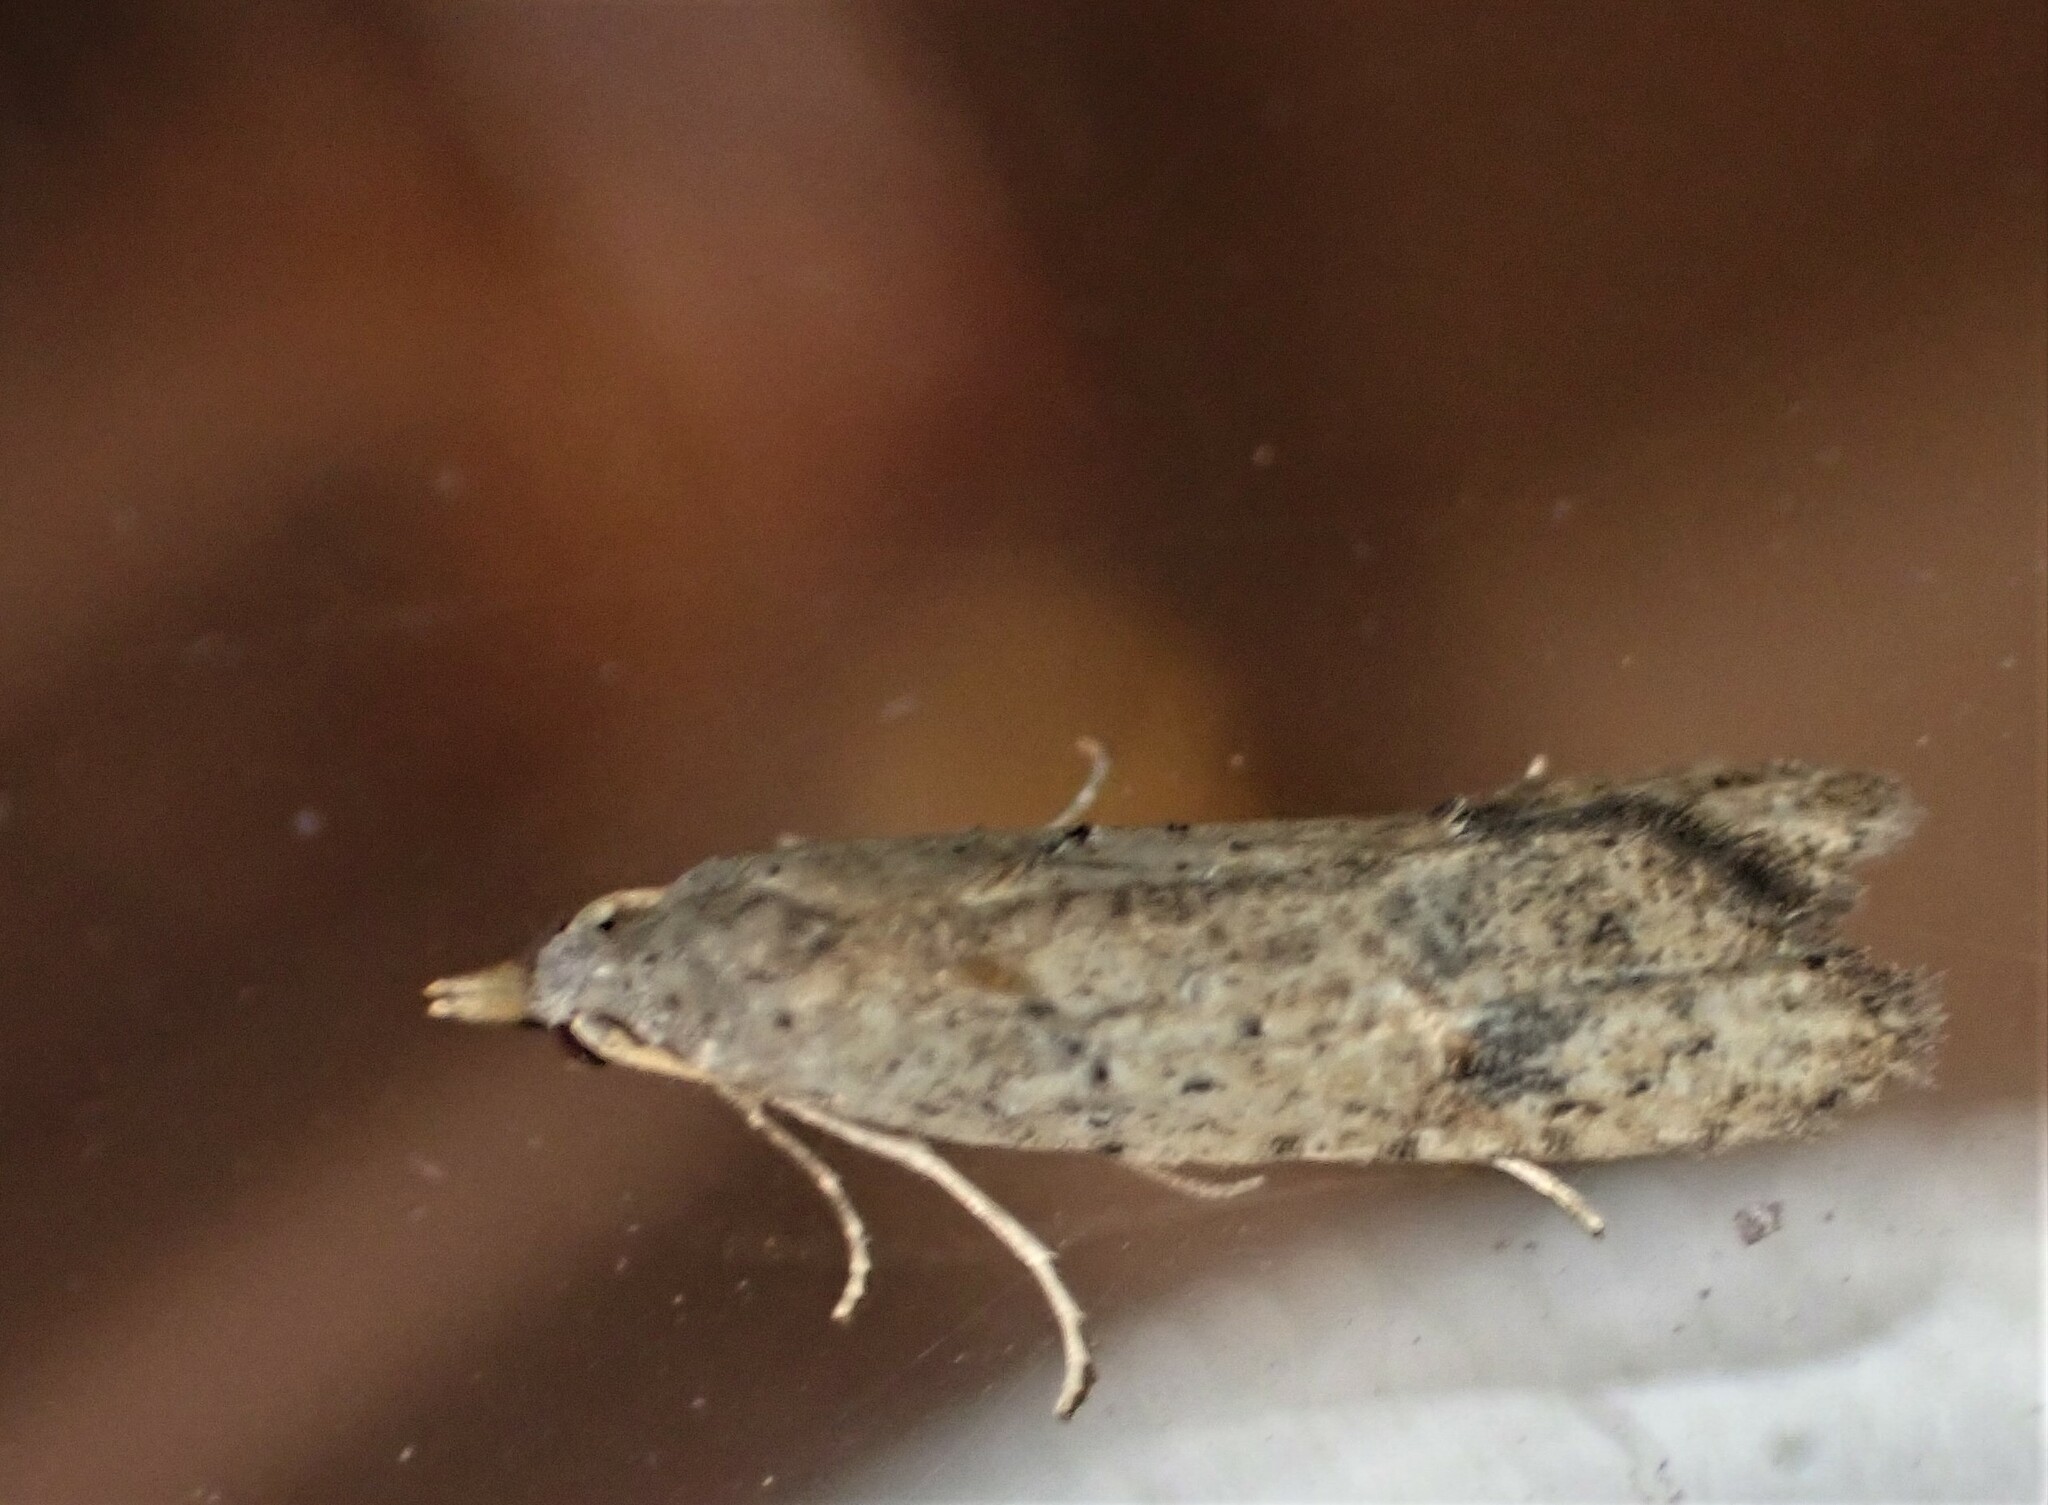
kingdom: Animalia
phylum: Arthropoda
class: Insecta
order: Lepidoptera
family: Carposinidae
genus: Carposina
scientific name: Carposina rubophaga
